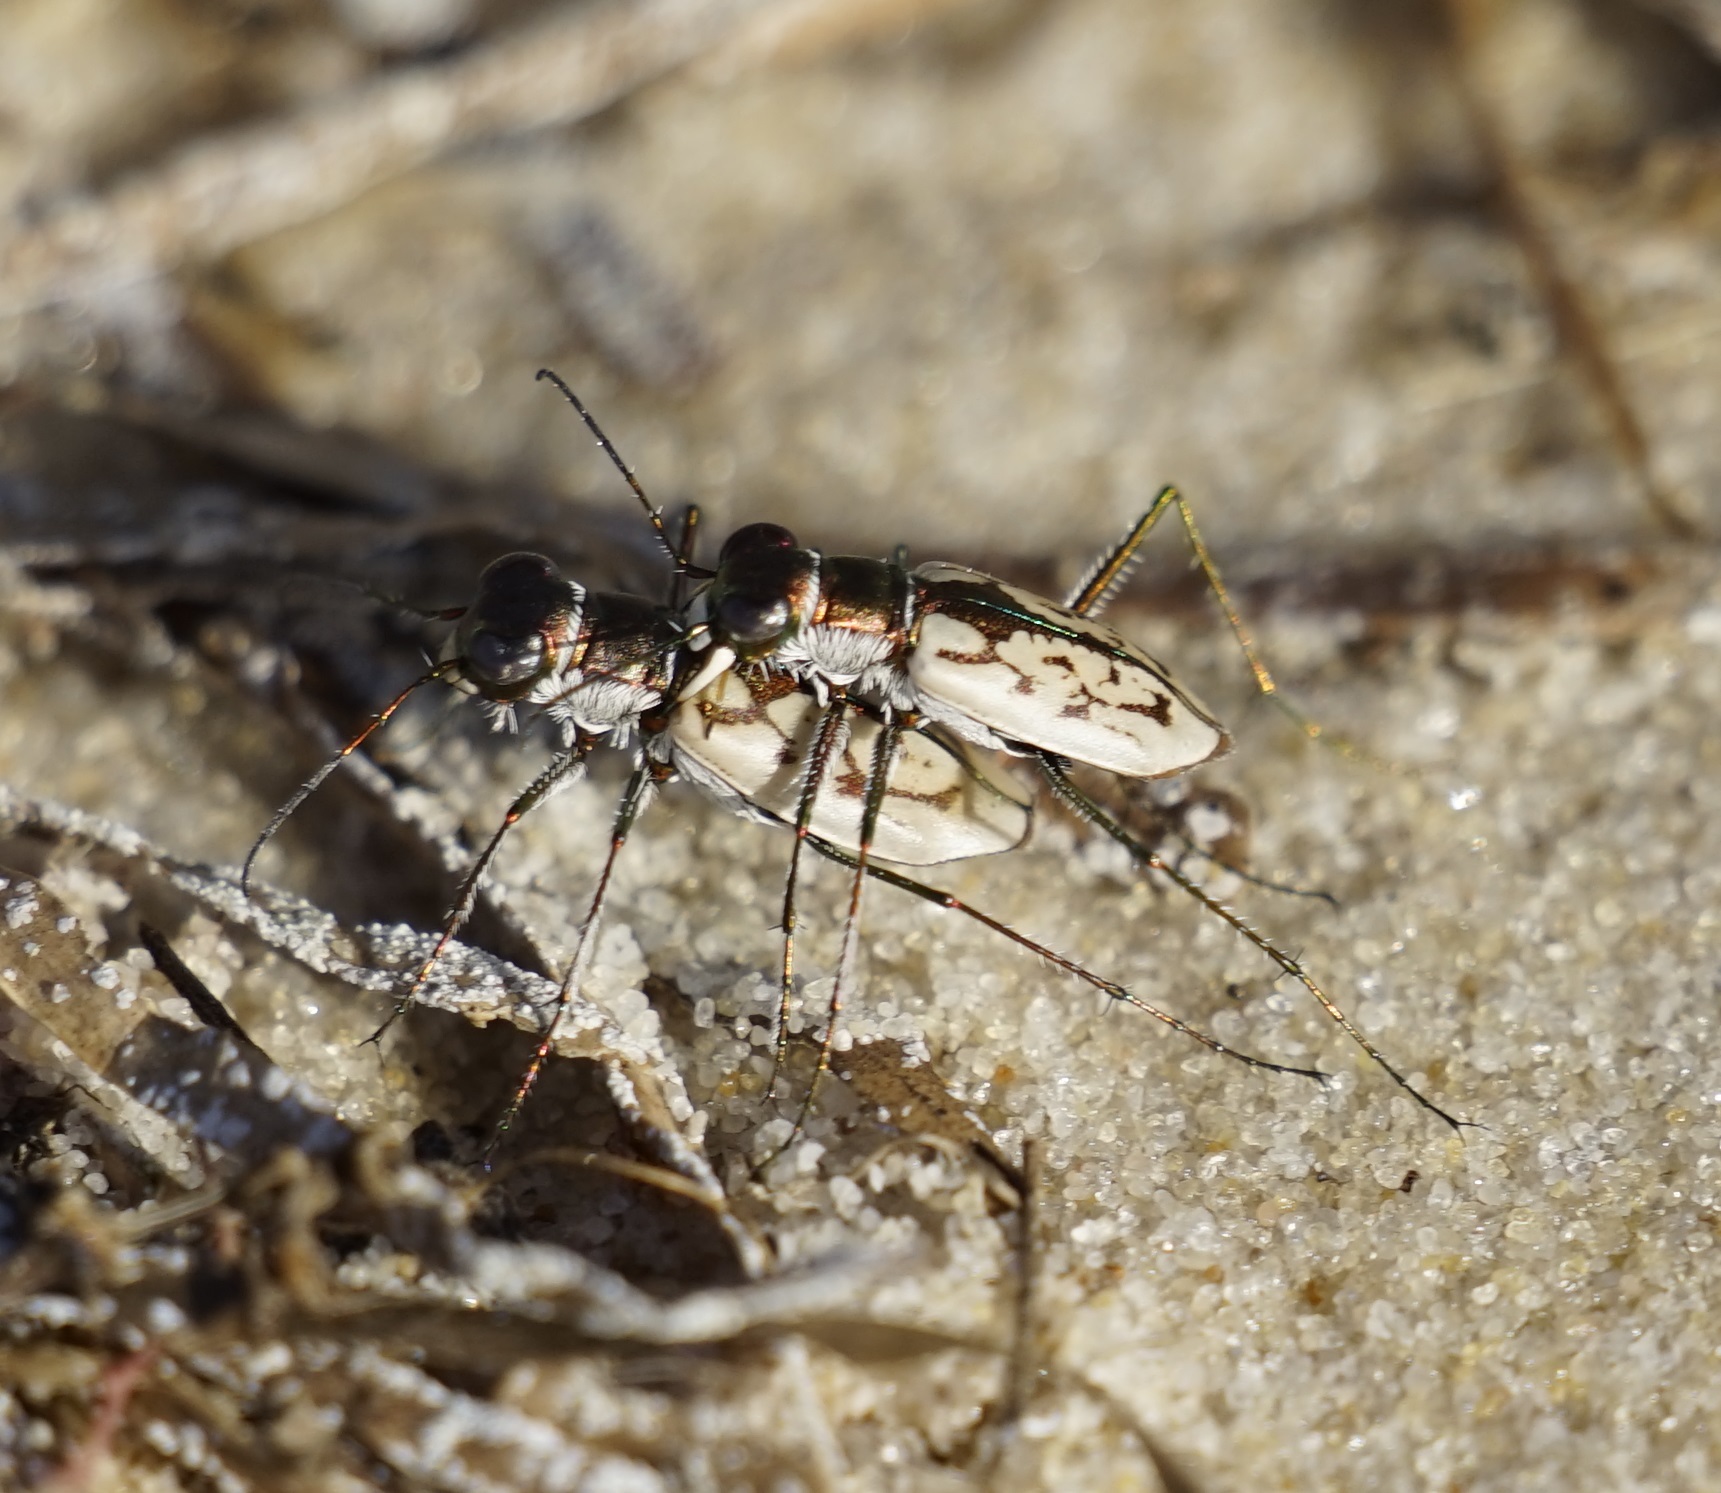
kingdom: Animalia
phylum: Arthropoda
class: Insecta
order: Coleoptera
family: Carabidae
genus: Hypaetha
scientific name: Hypaetha upsilon
